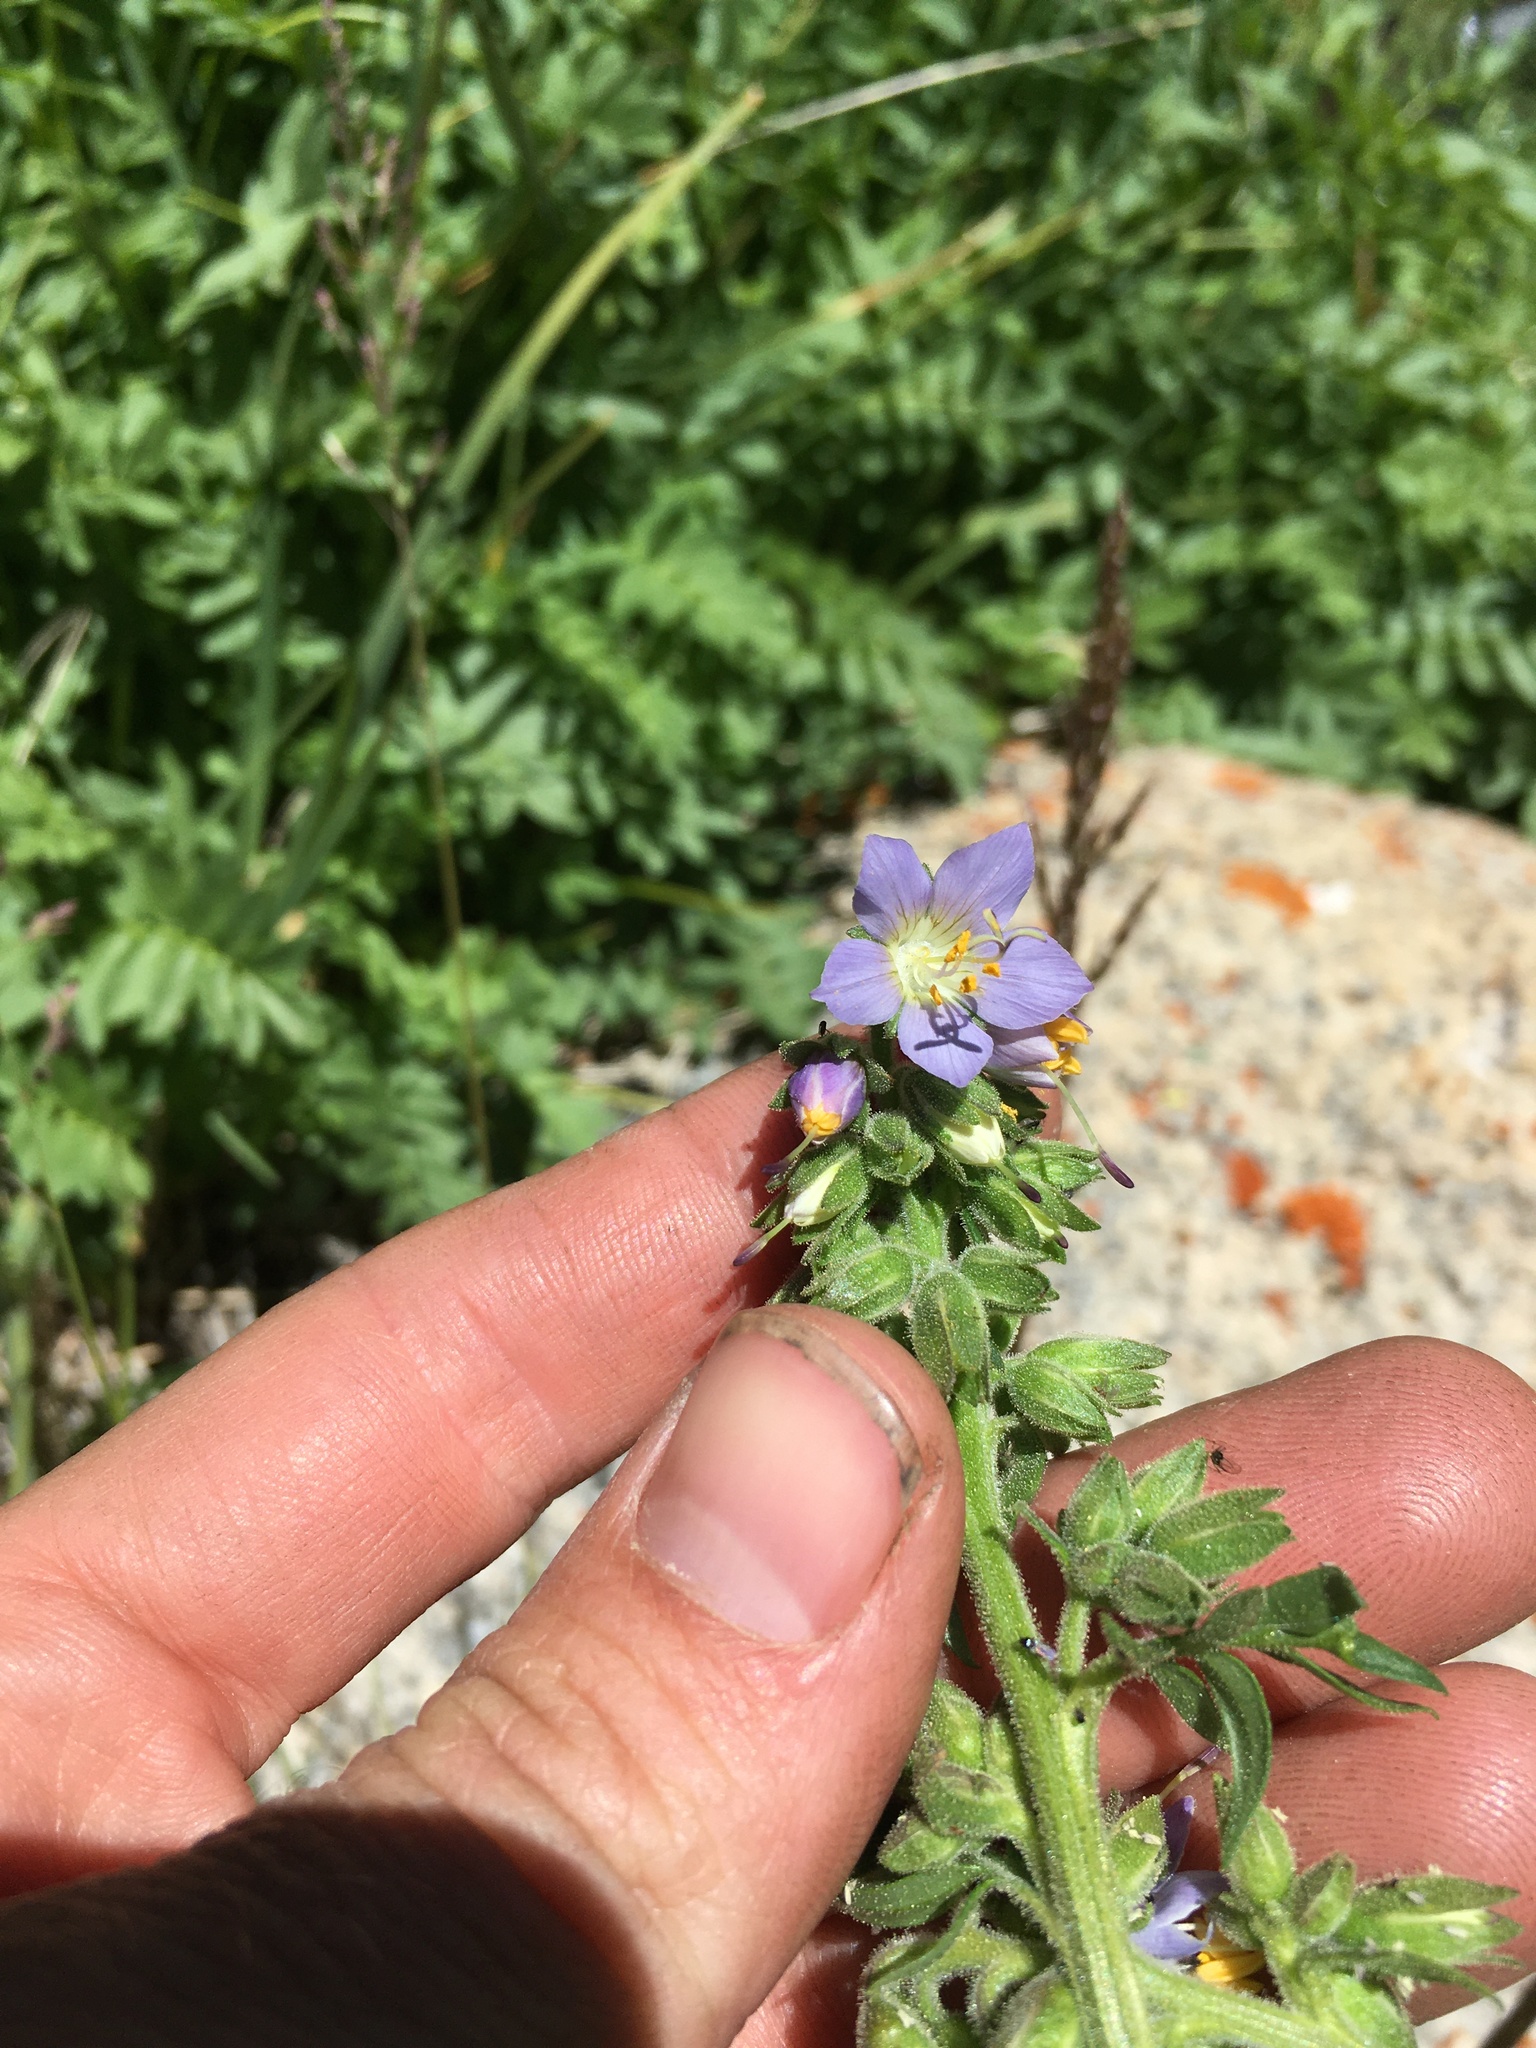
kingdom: Plantae
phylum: Tracheophyta
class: Magnoliopsida
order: Ericales
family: Polemoniaceae
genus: Polemonium
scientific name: Polemonium occidentale
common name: Western jacob's-ladder
